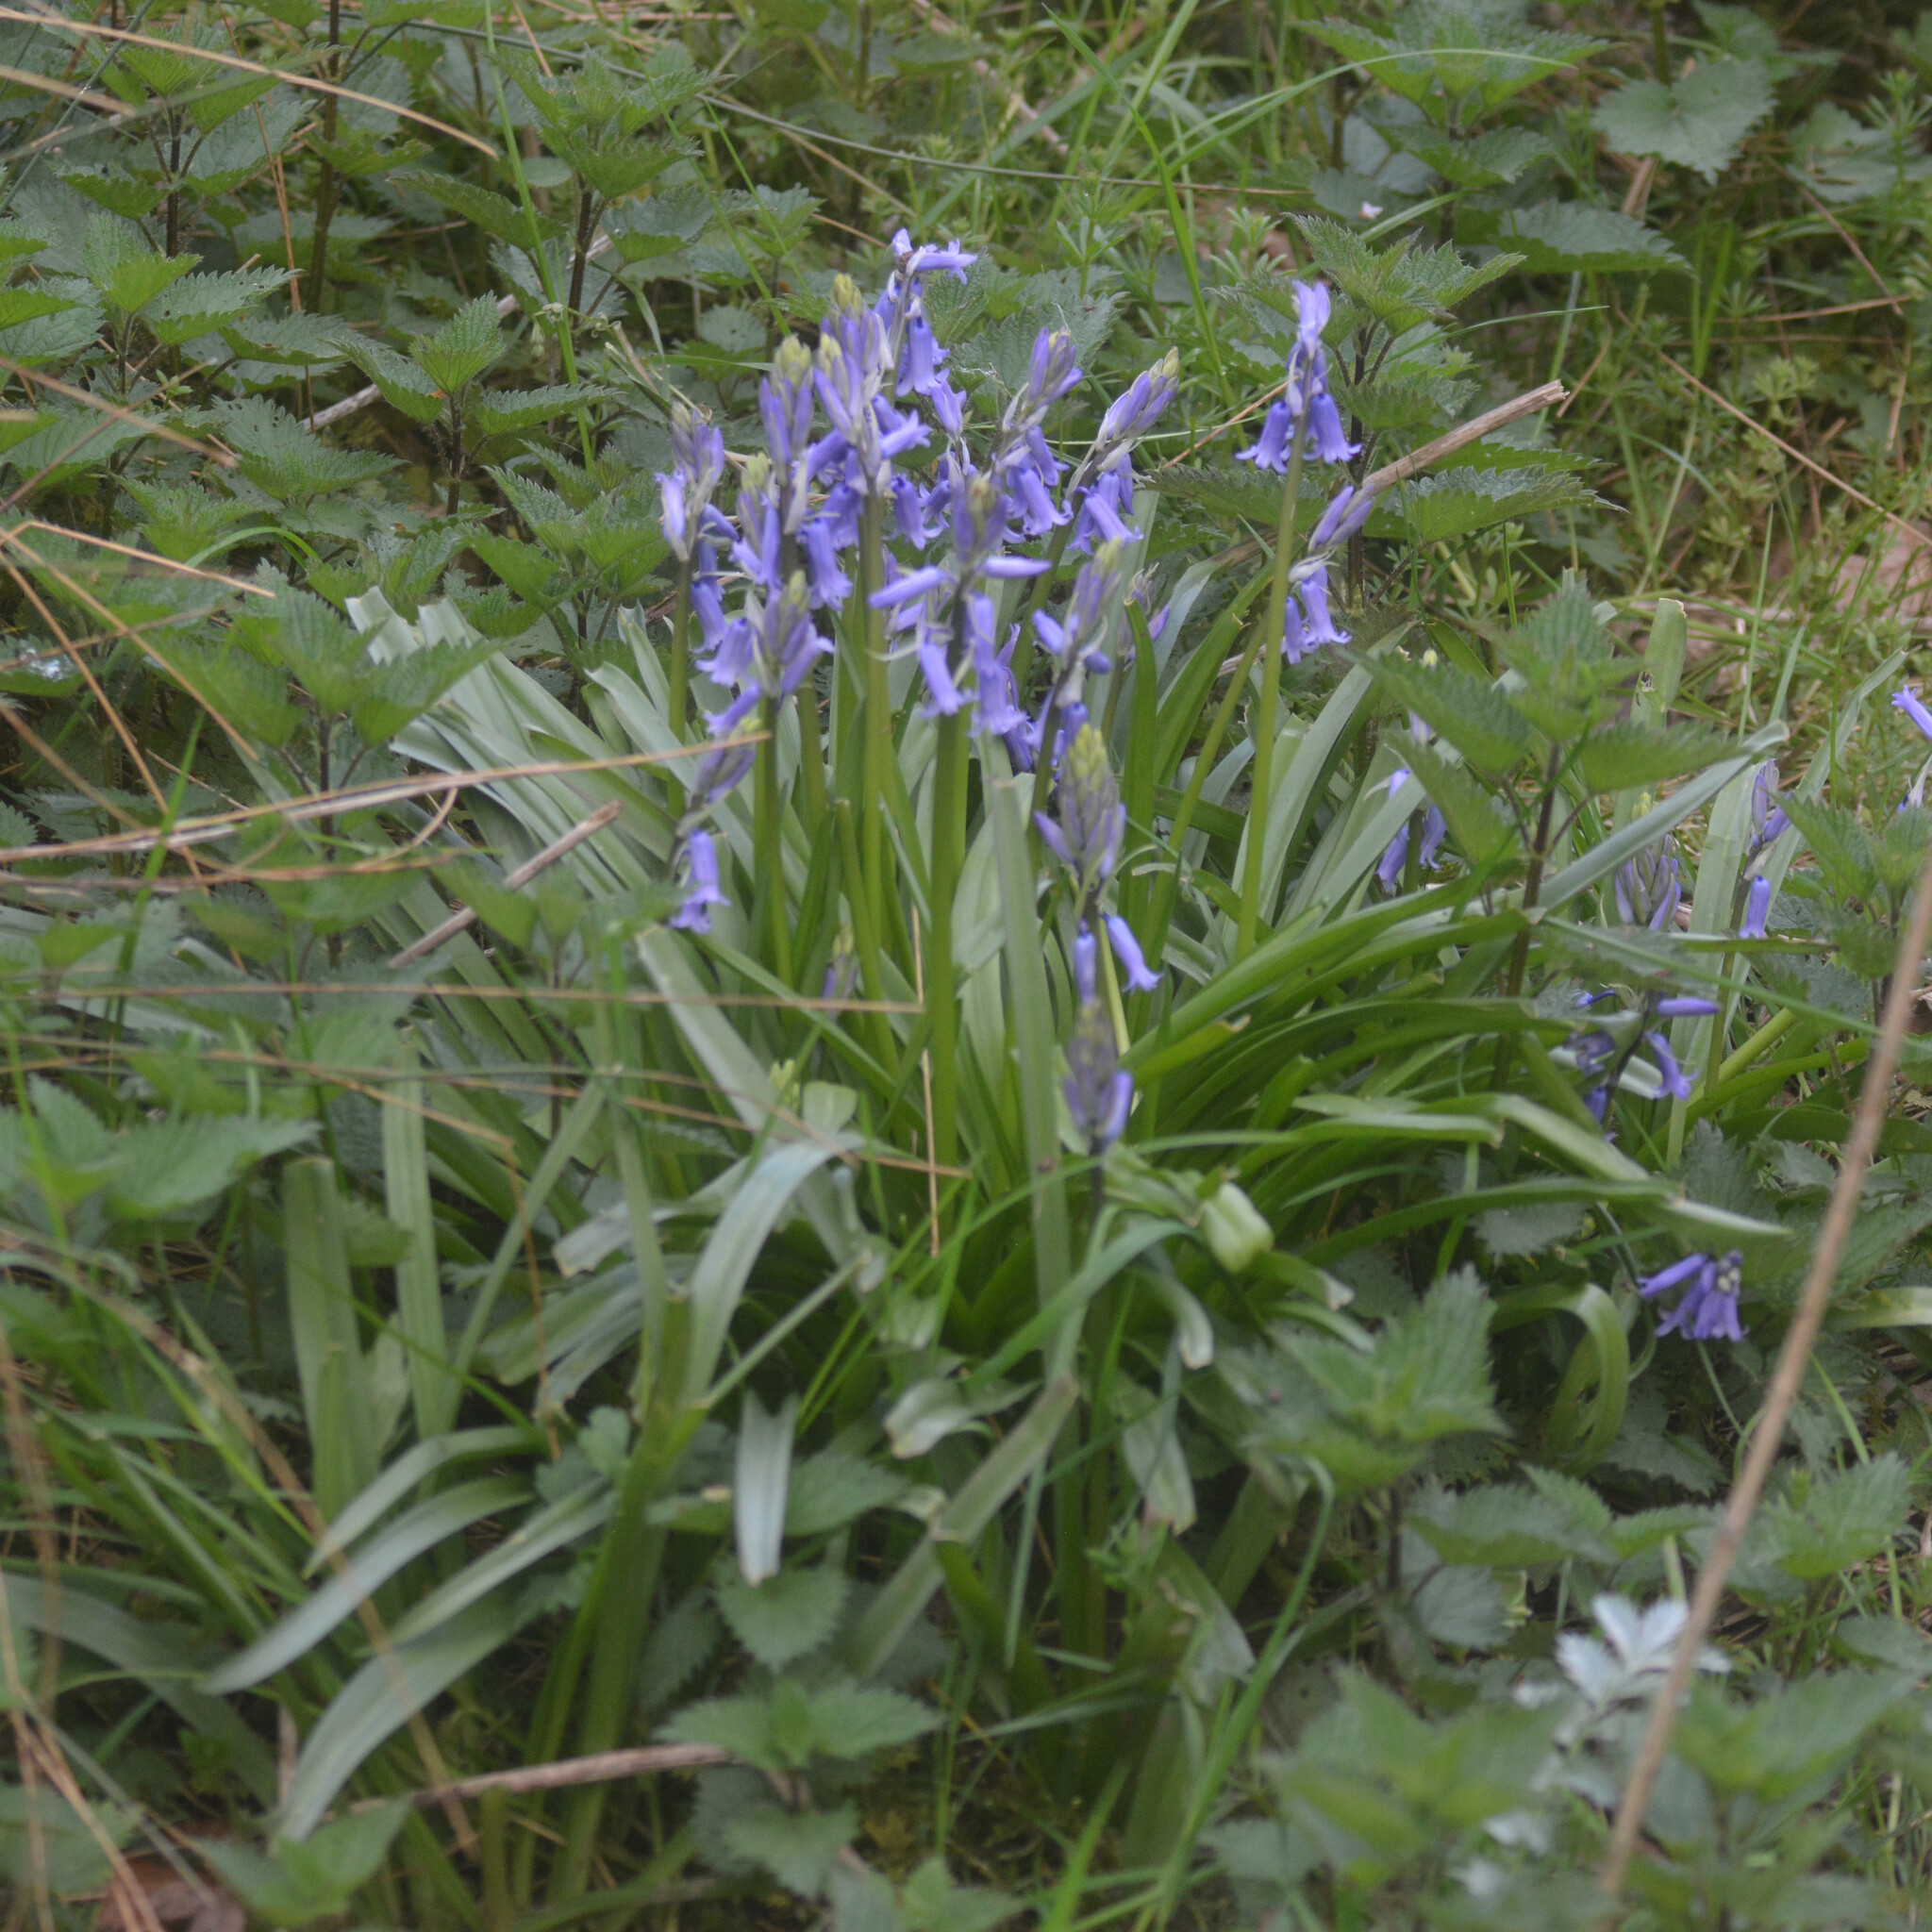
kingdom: Plantae
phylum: Tracheophyta
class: Liliopsida
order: Asparagales
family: Asparagaceae
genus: Hyacinthoides
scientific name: Hyacinthoides massartiana
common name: Hyacinthoides
